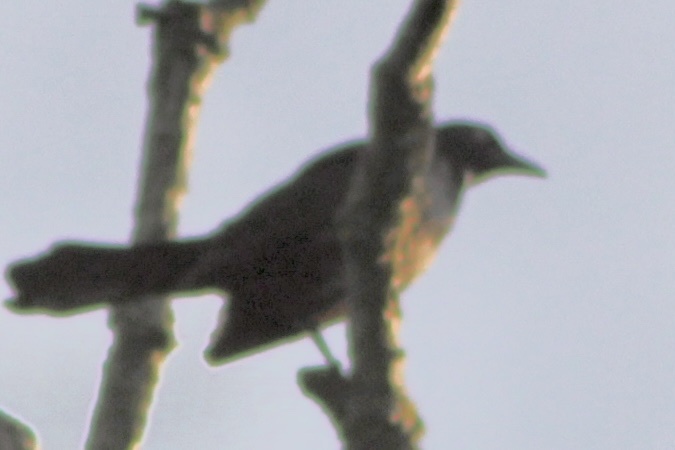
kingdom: Animalia
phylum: Chordata
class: Aves
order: Passeriformes
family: Icteridae
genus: Quiscalus
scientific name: Quiscalus quiscula
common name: Common grackle
